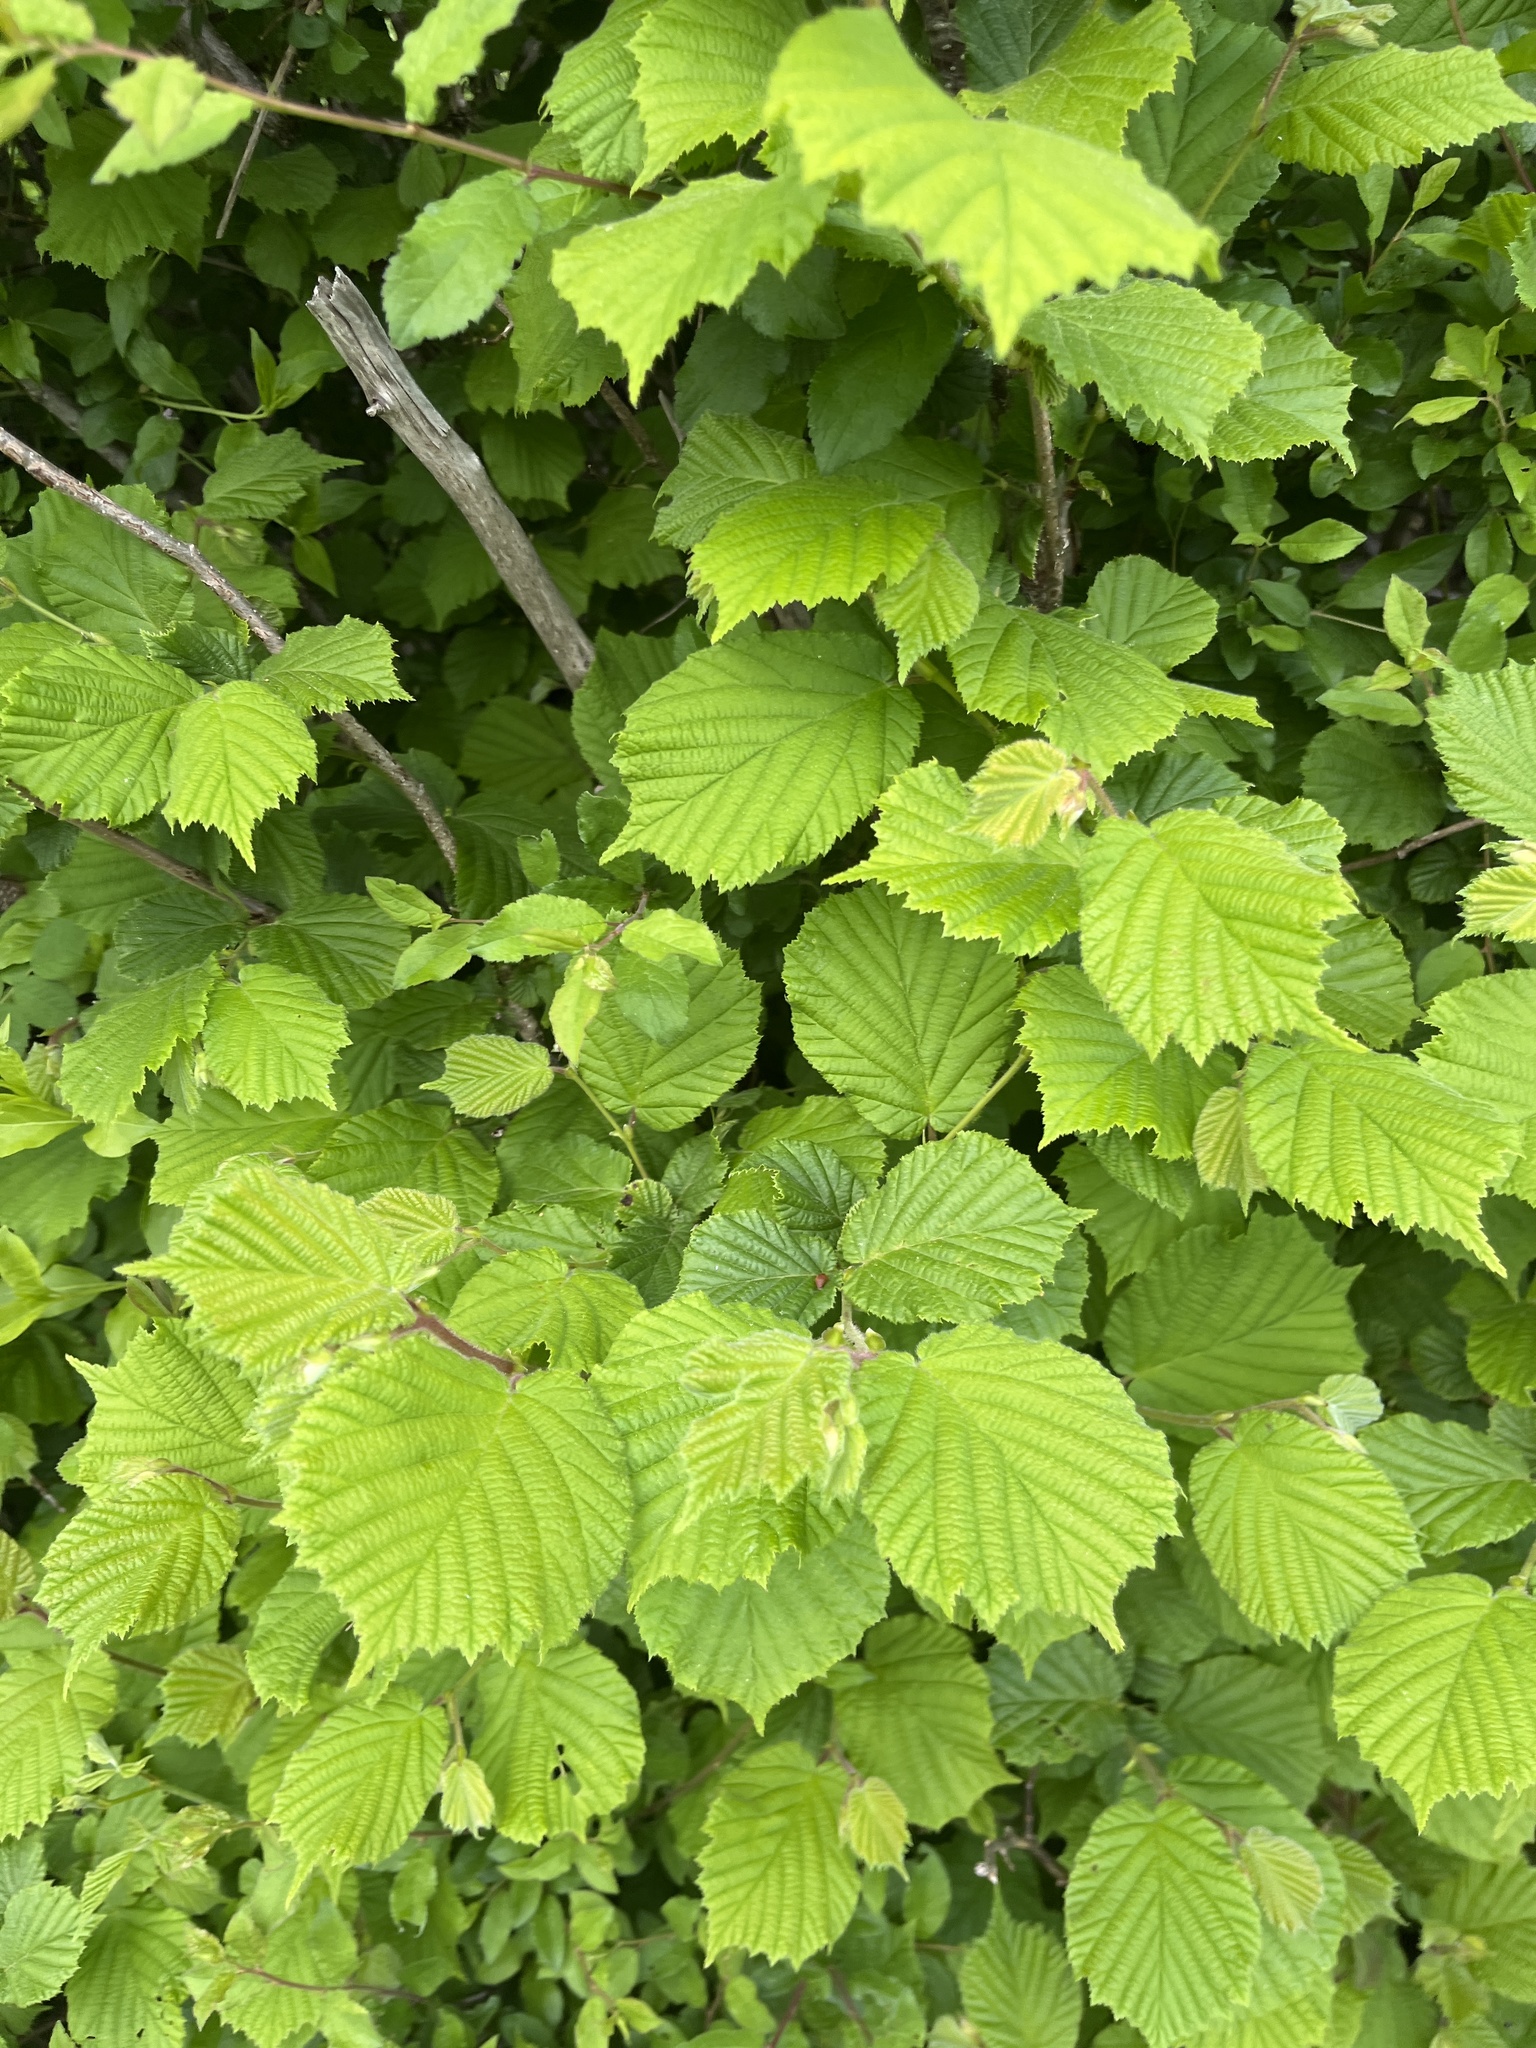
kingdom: Plantae
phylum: Tracheophyta
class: Magnoliopsida
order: Fagales
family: Betulaceae
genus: Corylus
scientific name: Corylus avellana
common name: European hazel
